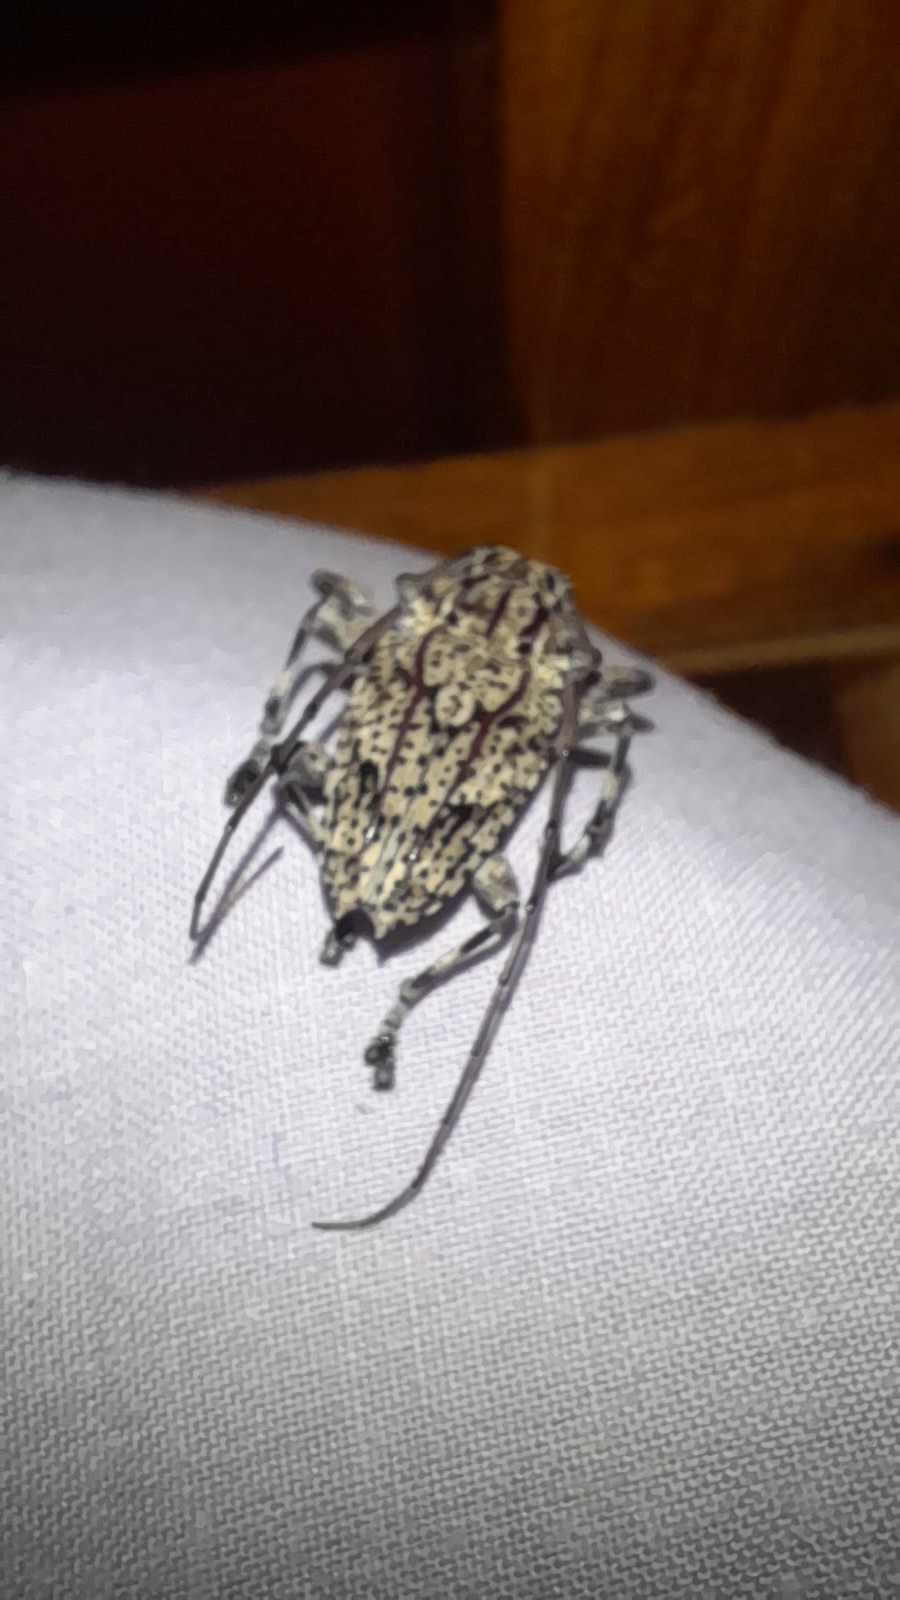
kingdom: Animalia
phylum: Arthropoda
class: Insecta
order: Coleoptera
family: Cerambycidae
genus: Steirastoma
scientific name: Steirastoma breve
